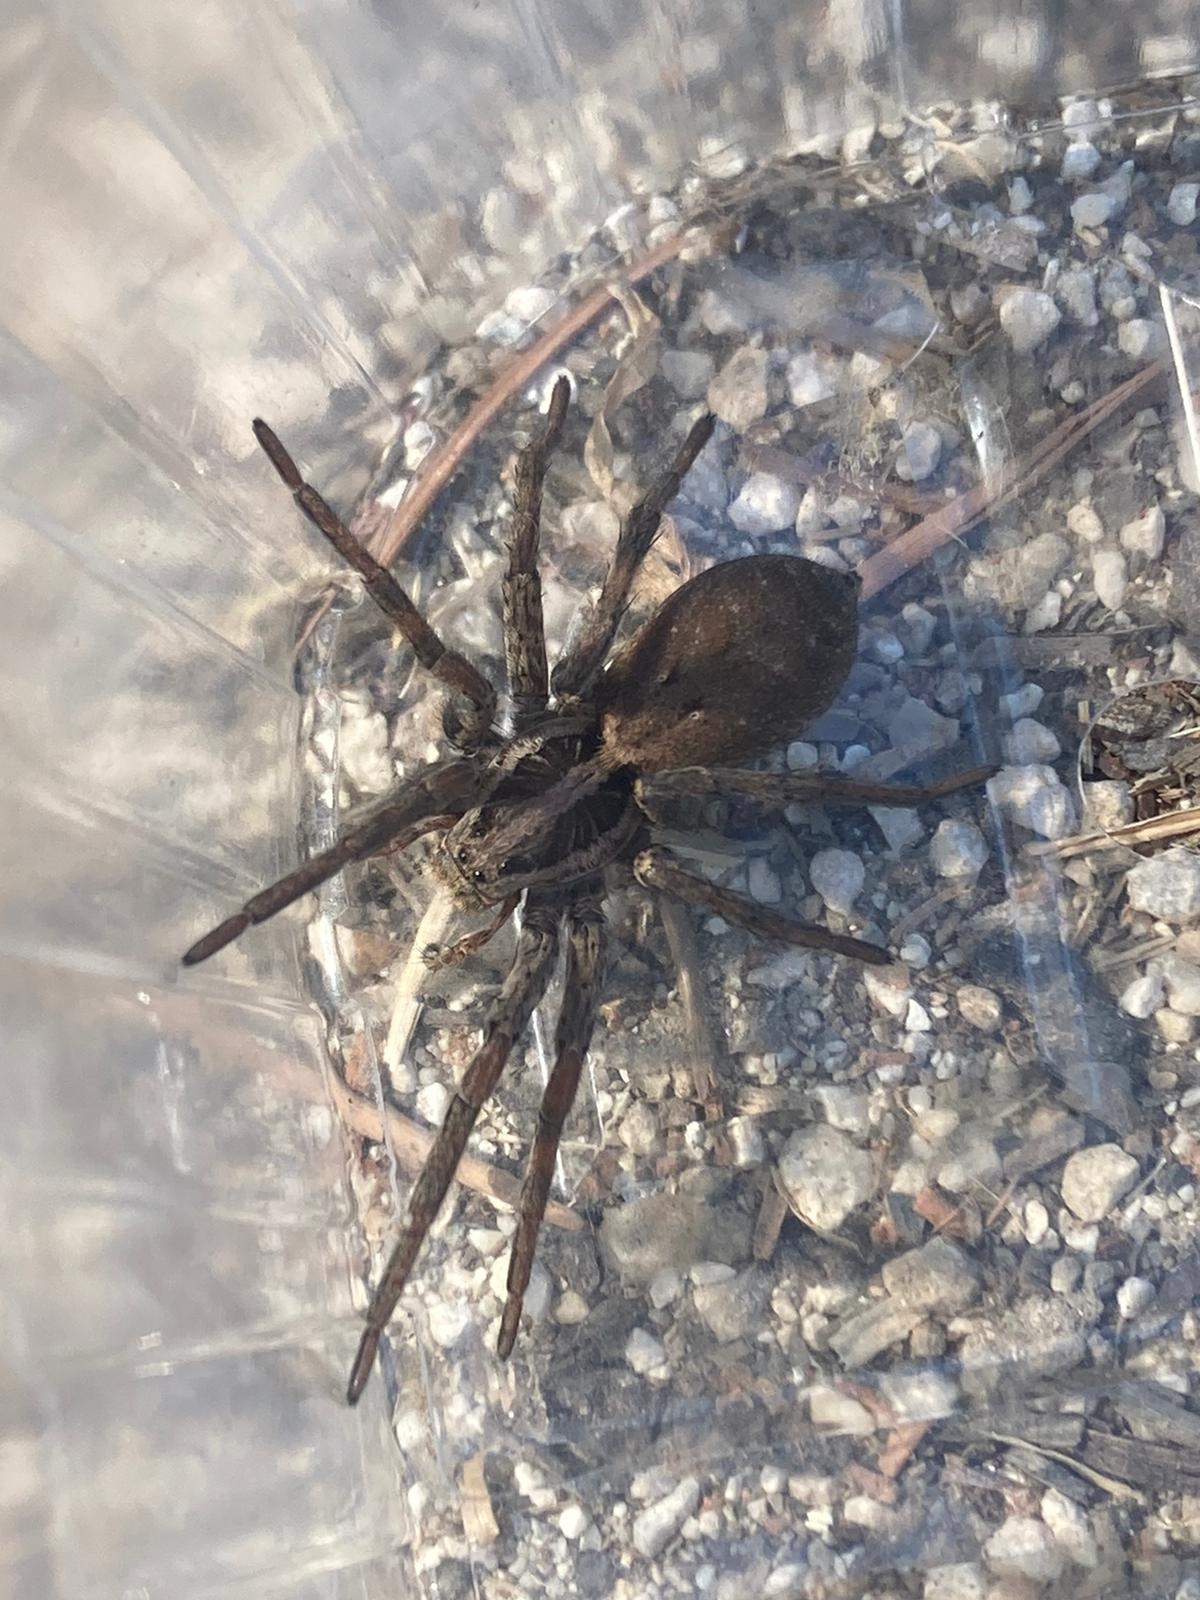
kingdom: Animalia
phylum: Arthropoda
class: Arachnida
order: Araneae
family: Lycosidae
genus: Hogna
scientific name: Hogna radiata
